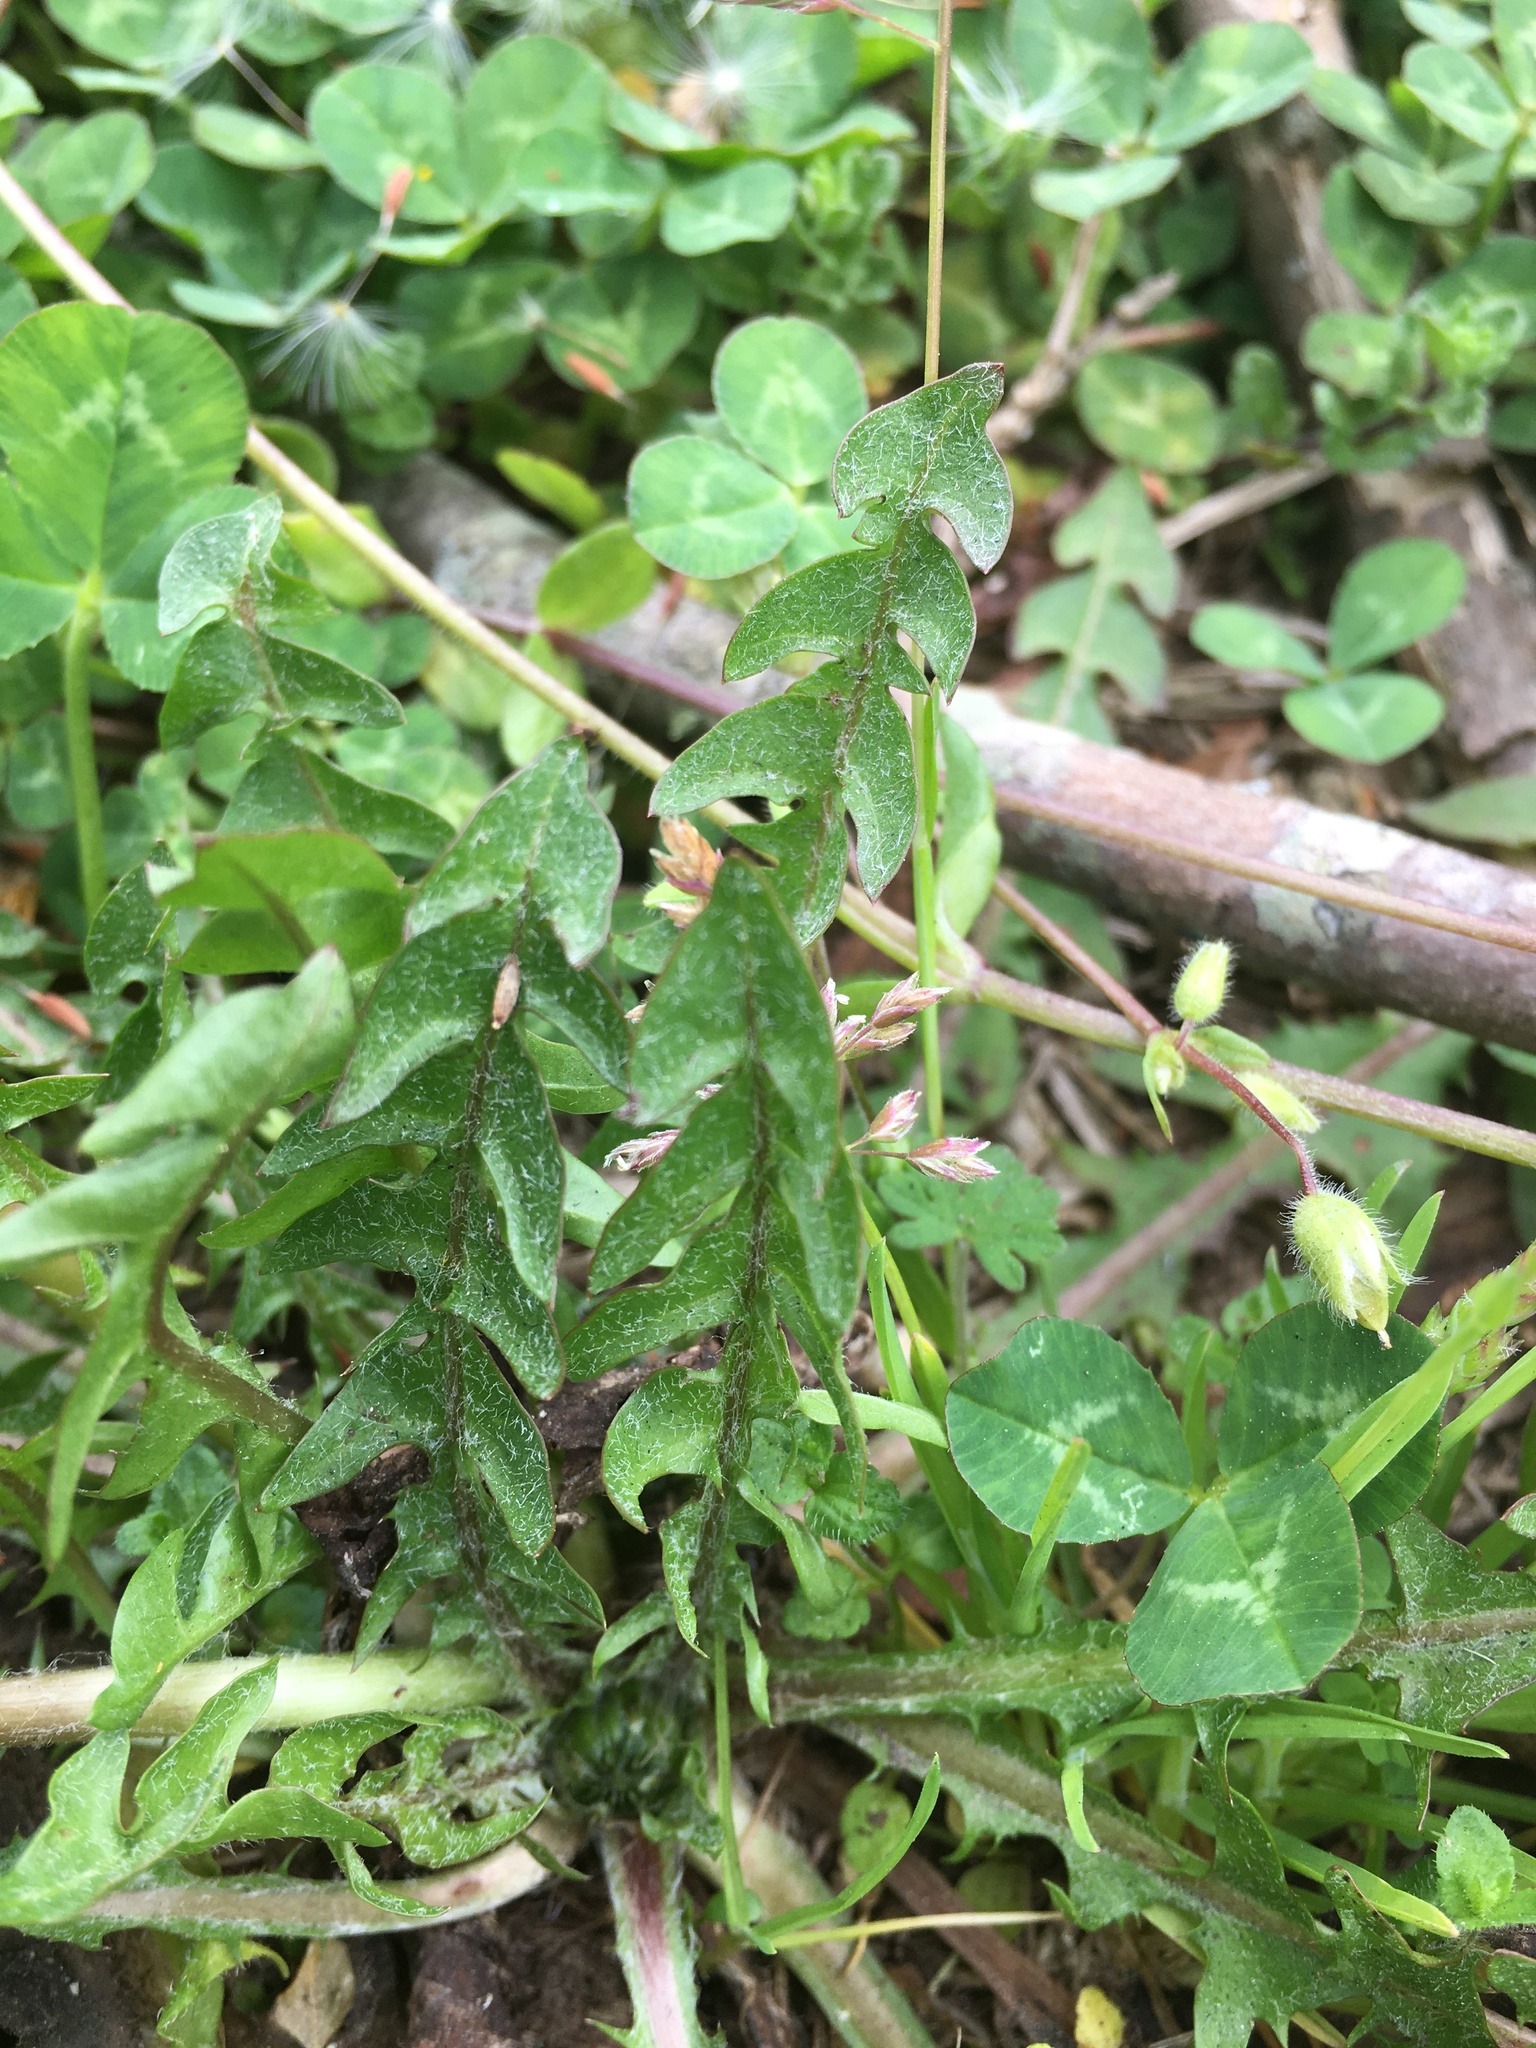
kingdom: Plantae
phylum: Tracheophyta
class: Magnoliopsida
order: Asterales
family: Asteraceae
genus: Taraxacum
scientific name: Taraxacum erythrospermum
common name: Rock dandelion
